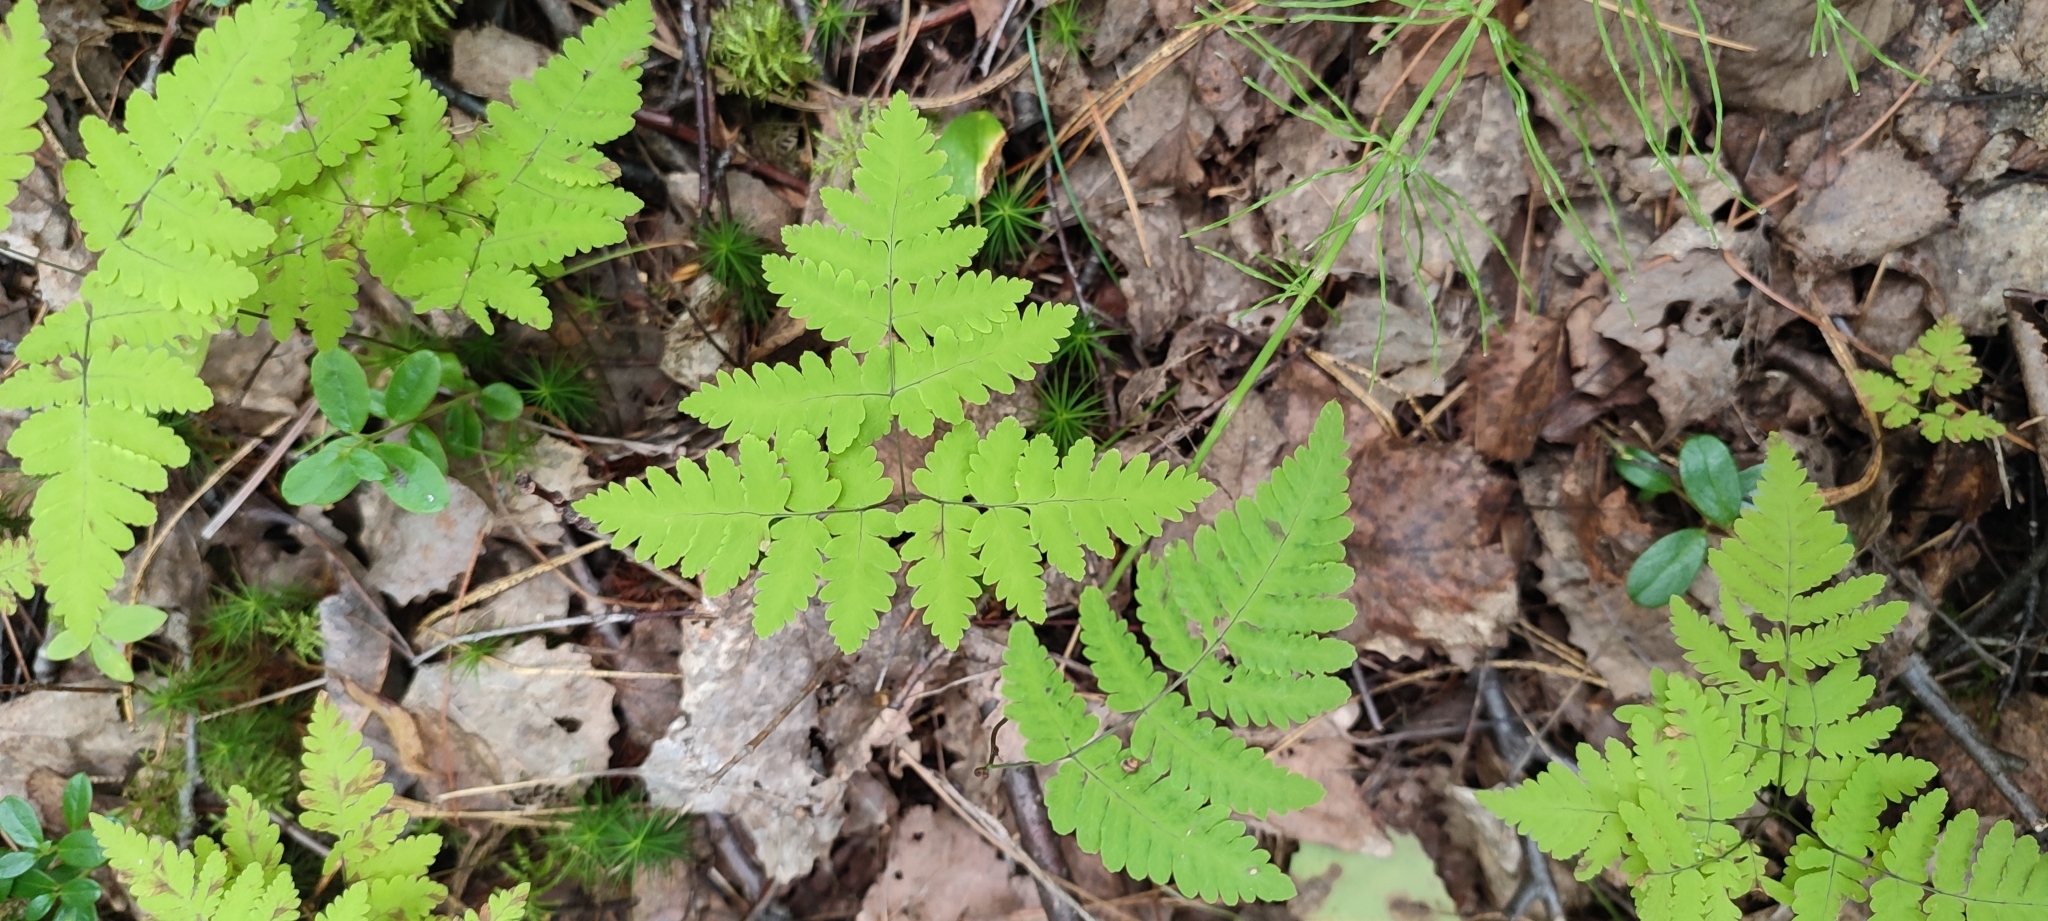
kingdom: Plantae
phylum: Tracheophyta
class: Polypodiopsida
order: Polypodiales
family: Cystopteridaceae
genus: Gymnocarpium
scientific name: Gymnocarpium dryopteris
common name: Oak fern
